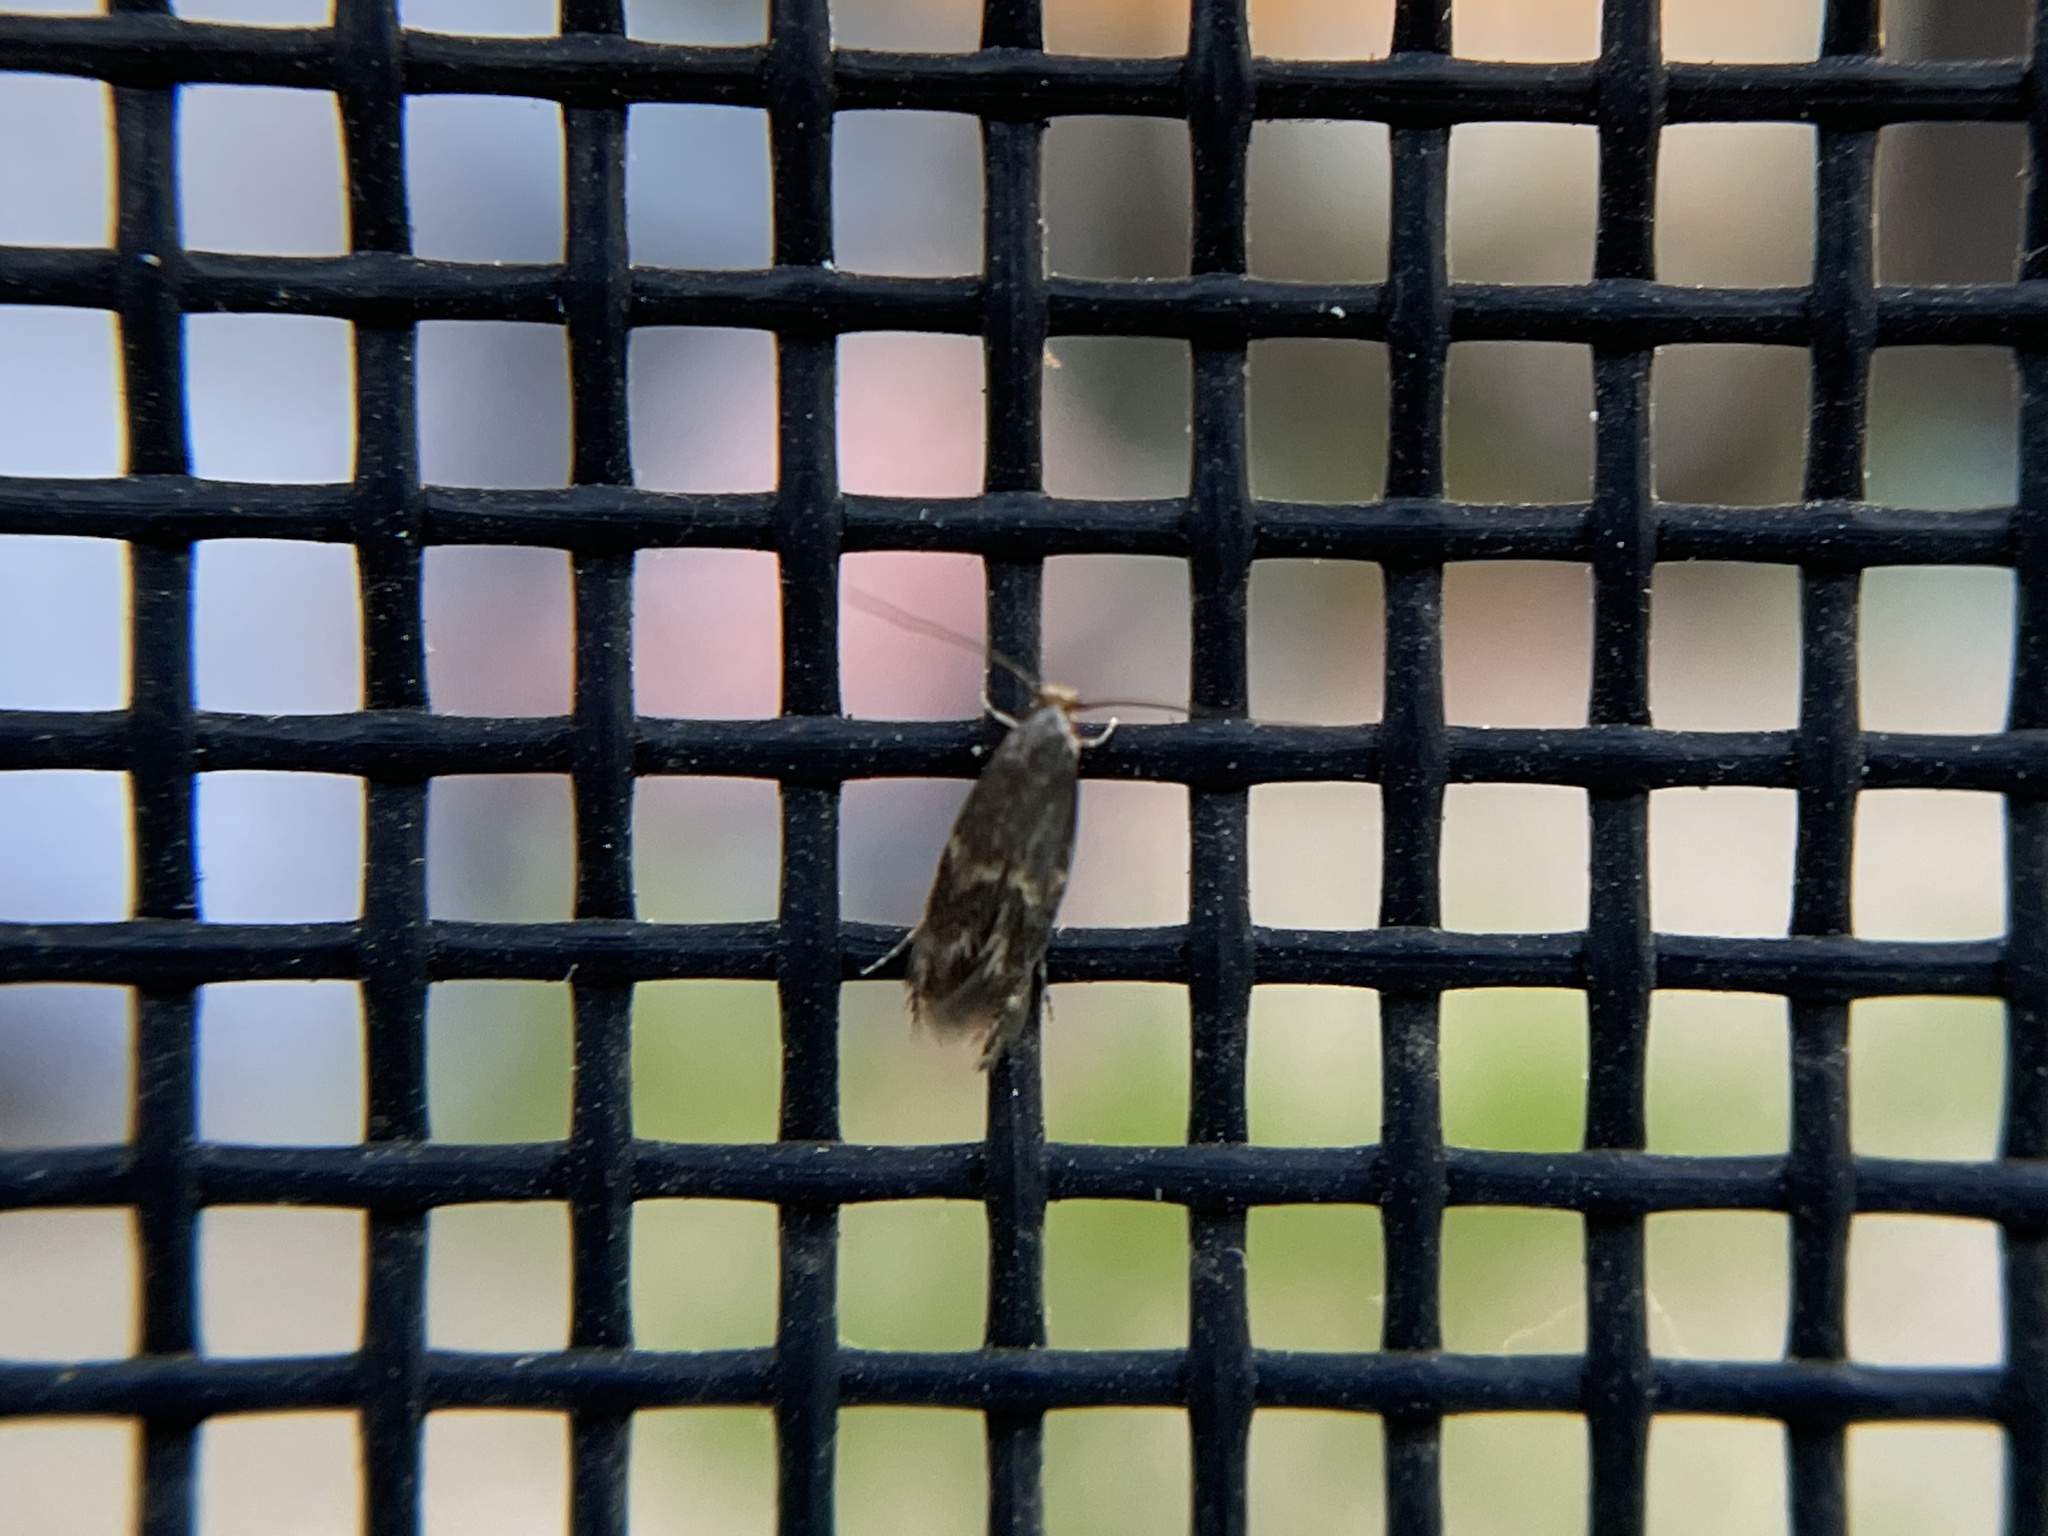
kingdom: Animalia
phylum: Arthropoda
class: Insecta
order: Lepidoptera
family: Tineidae
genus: Oinophila
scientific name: Oinophila v-flava
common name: Yellow v moth
